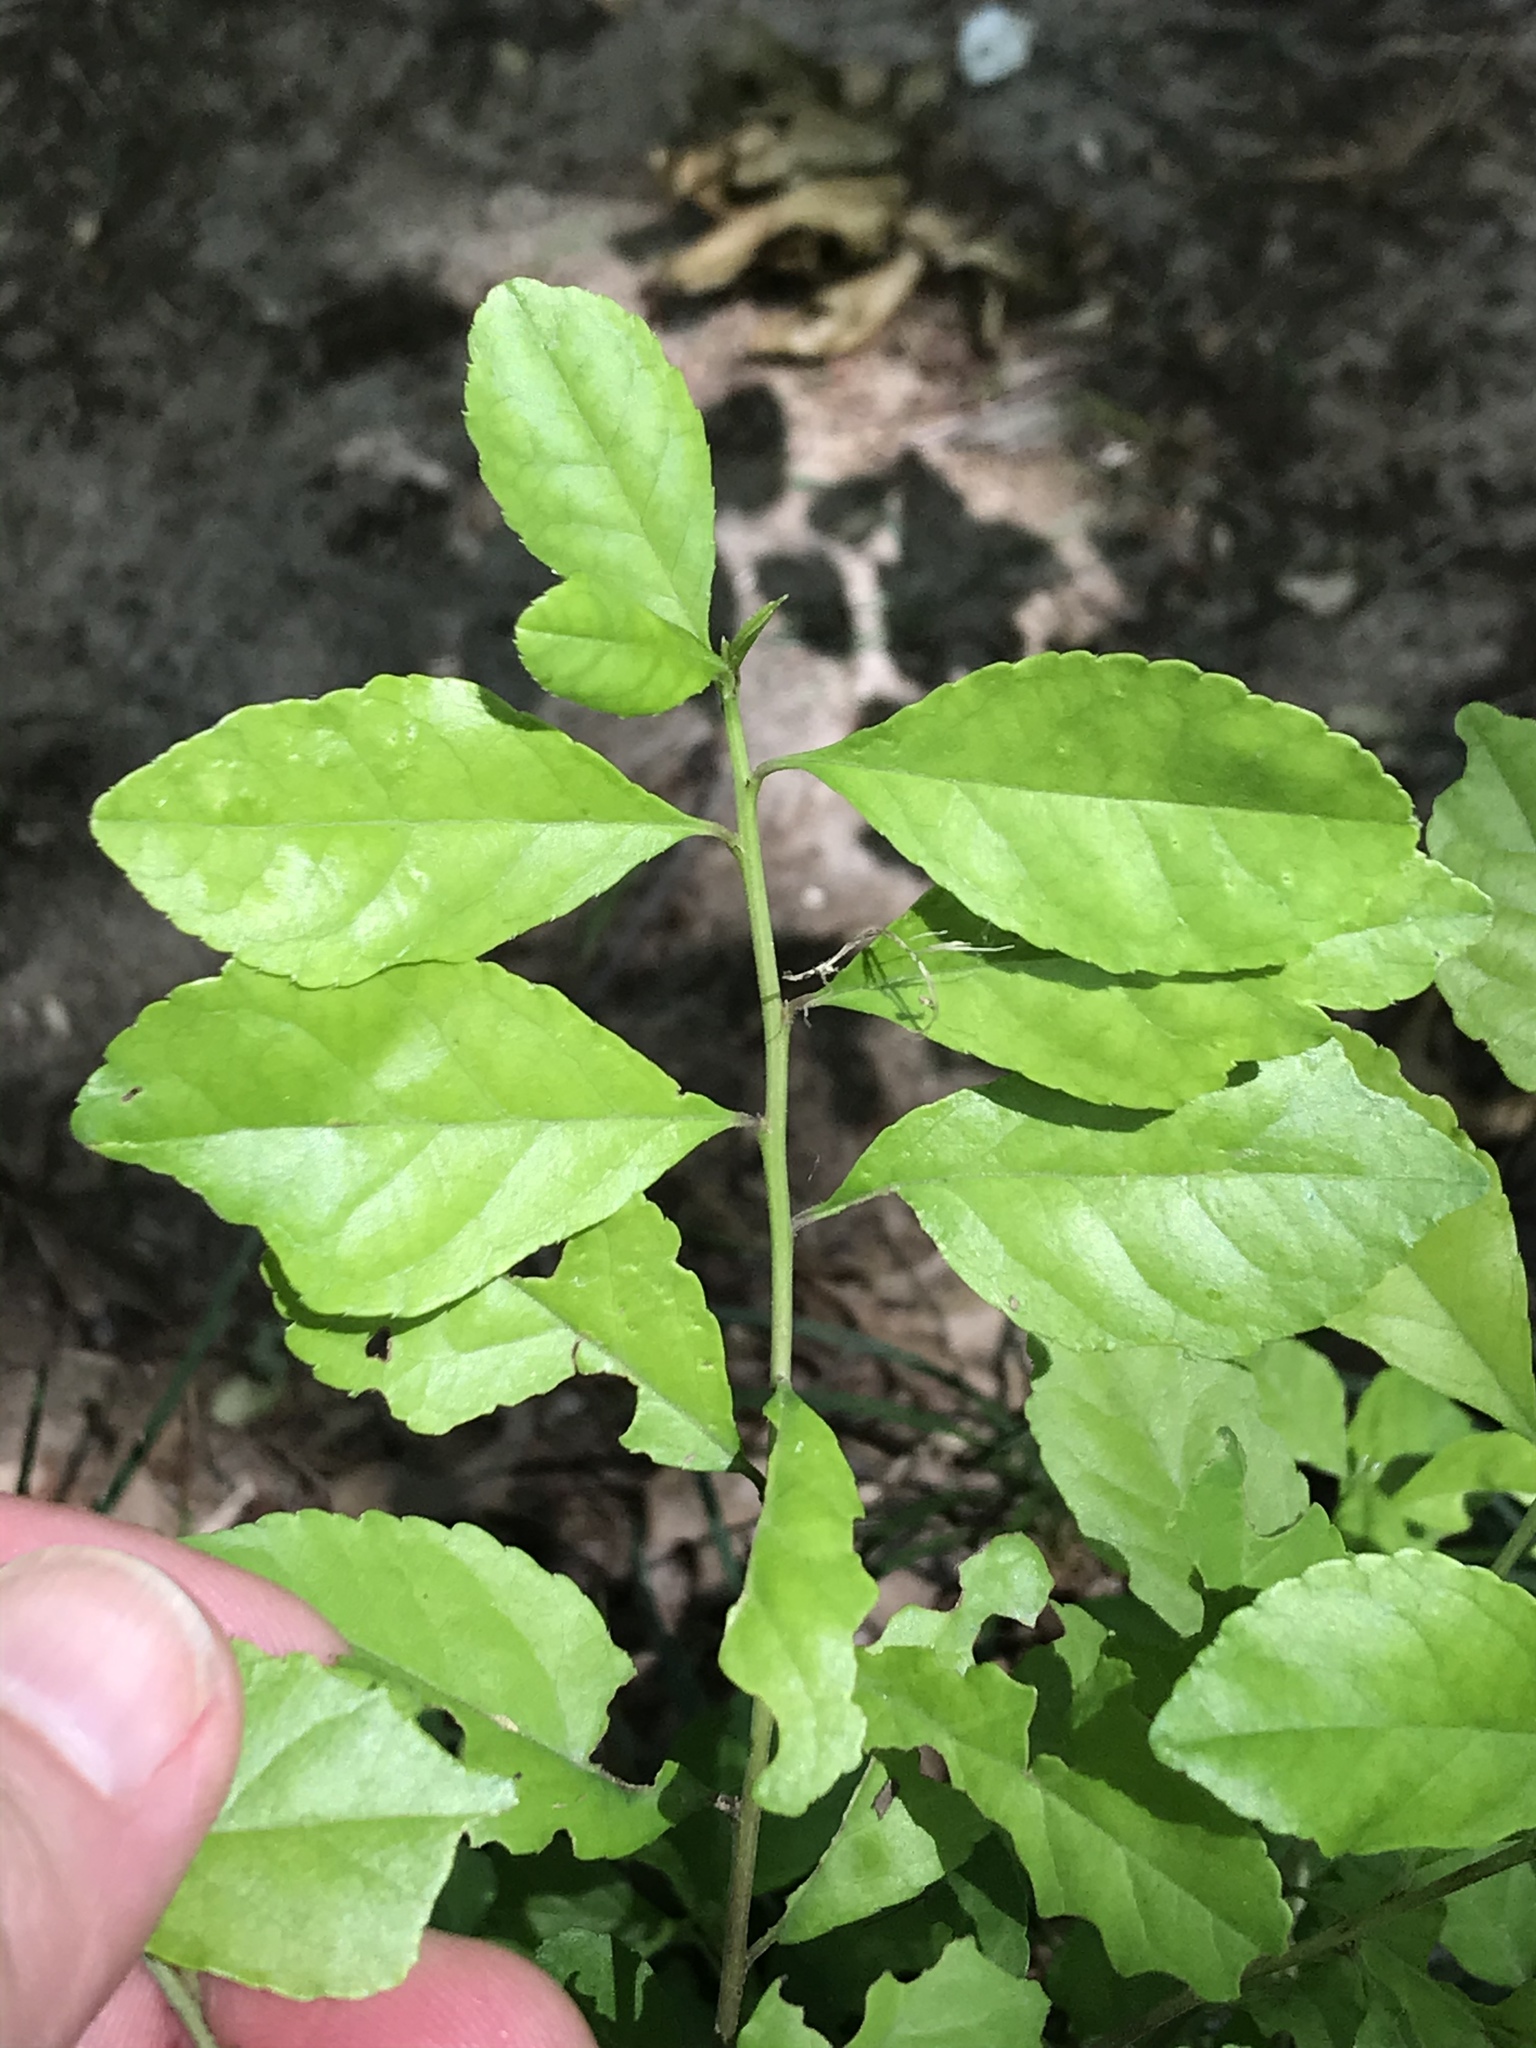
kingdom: Plantae
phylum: Tracheophyta
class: Magnoliopsida
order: Aquifoliales
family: Aquifoliaceae
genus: Ilex
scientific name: Ilex decidua
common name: Possum-haw
